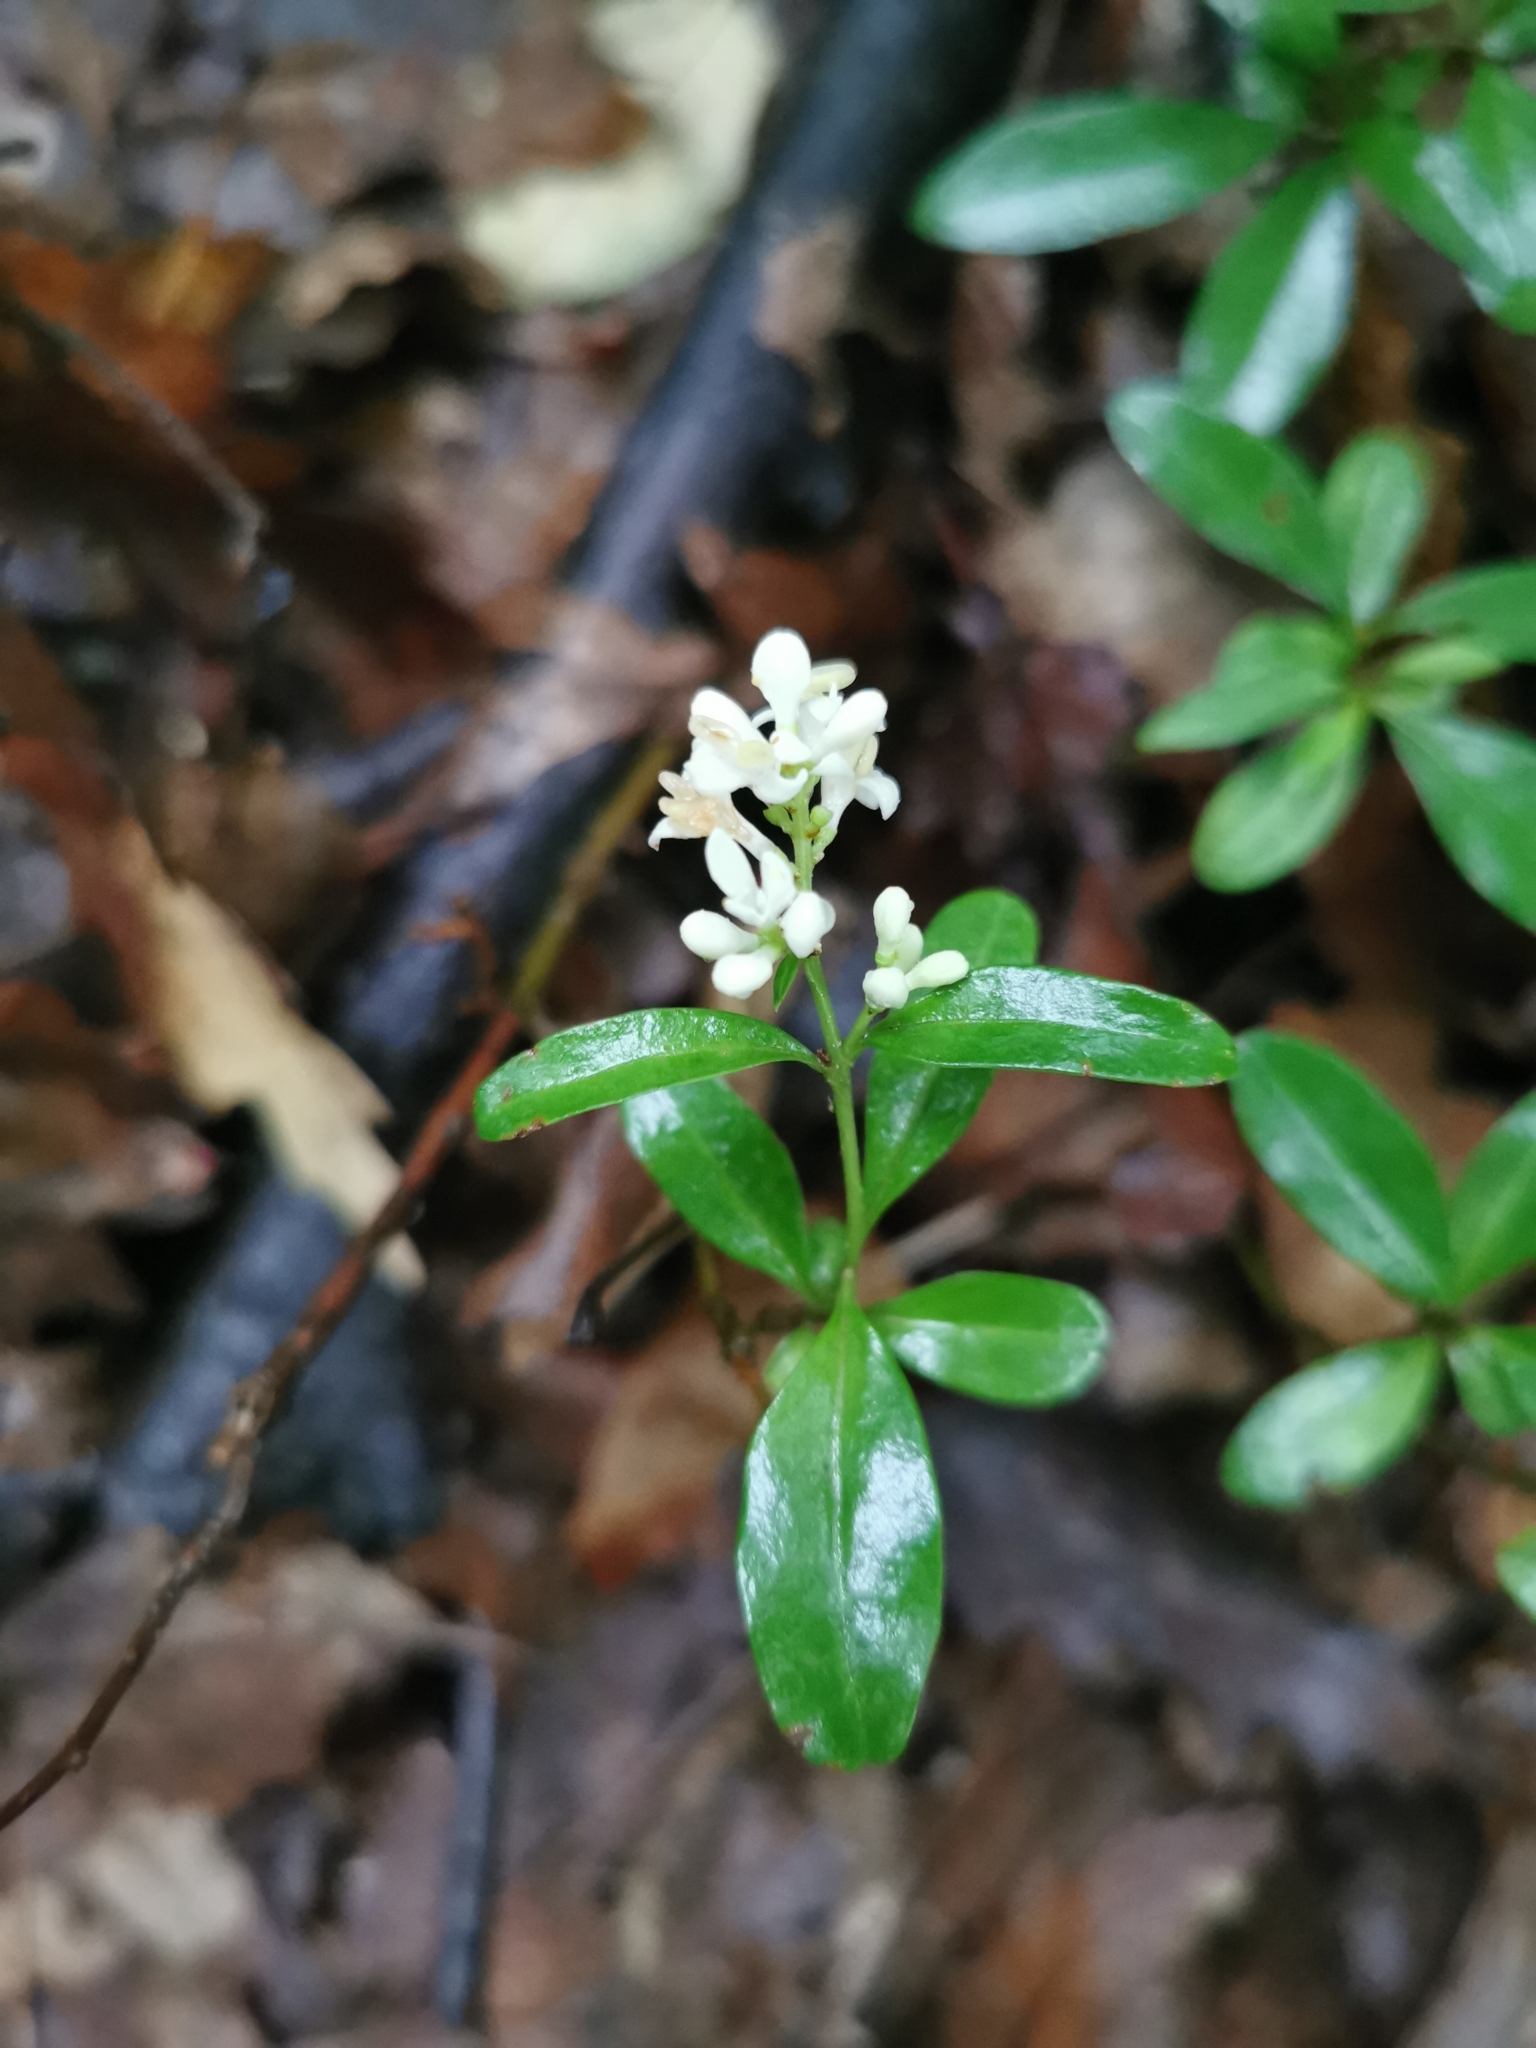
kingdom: Plantae
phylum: Tracheophyta
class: Magnoliopsida
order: Lamiales
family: Oleaceae
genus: Ligustrum
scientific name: Ligustrum vulgare
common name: Wild privet
